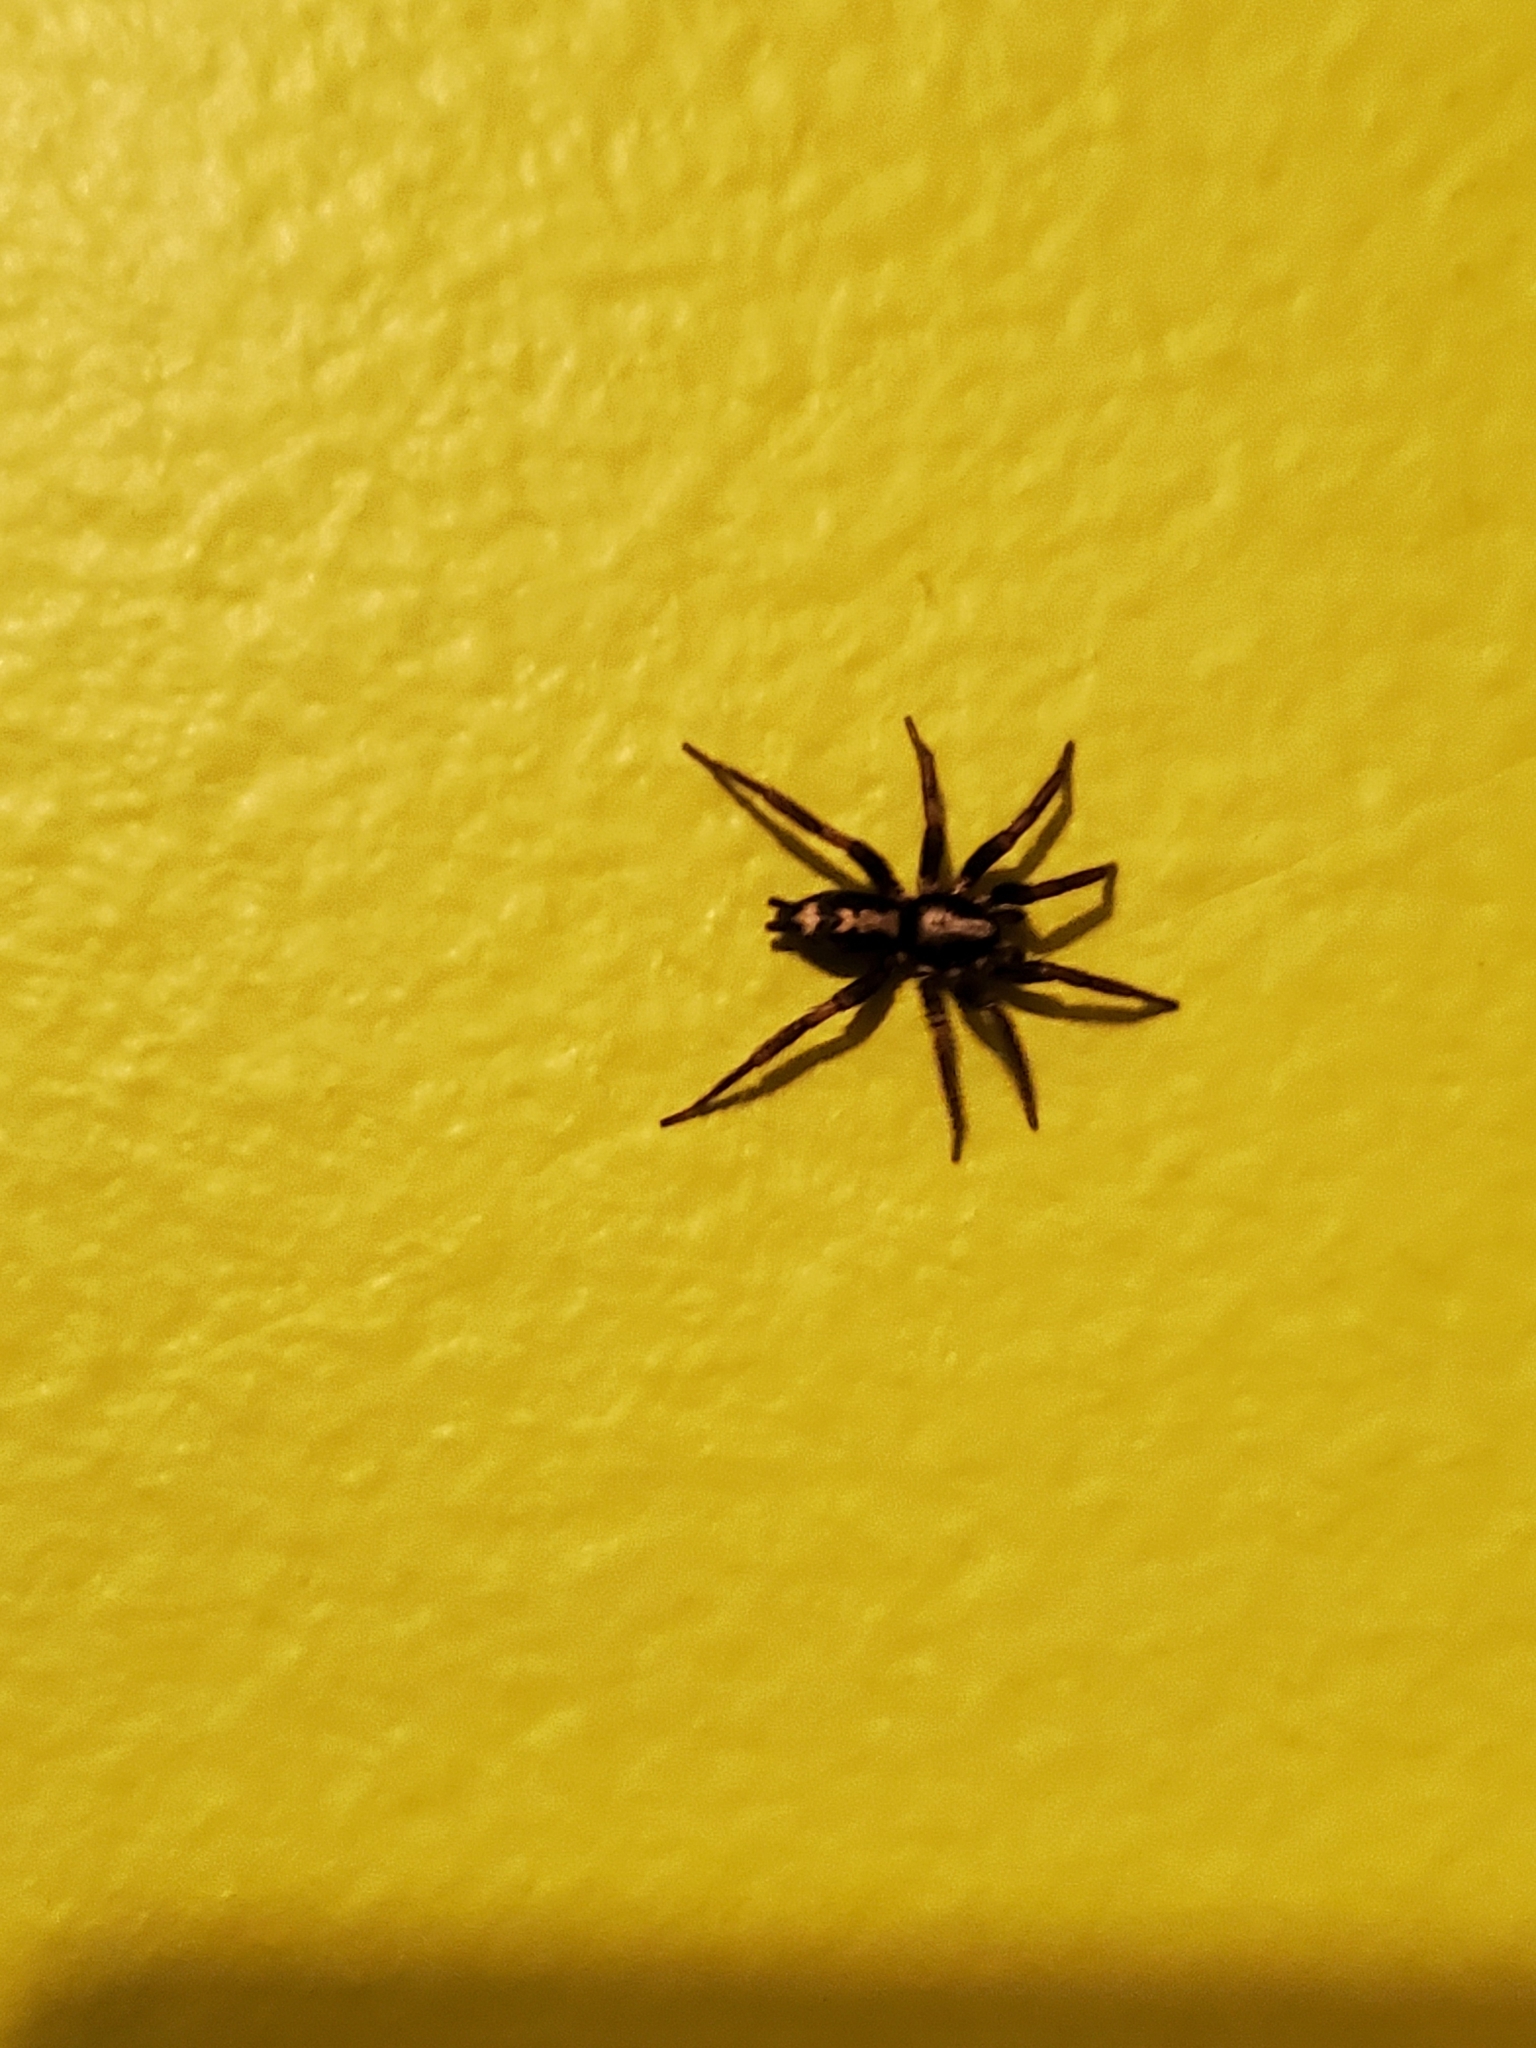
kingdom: Animalia
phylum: Arthropoda
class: Arachnida
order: Araneae
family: Gnaphosidae
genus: Herpyllus
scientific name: Herpyllus ecclesiasticus
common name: Eastern parson spider
